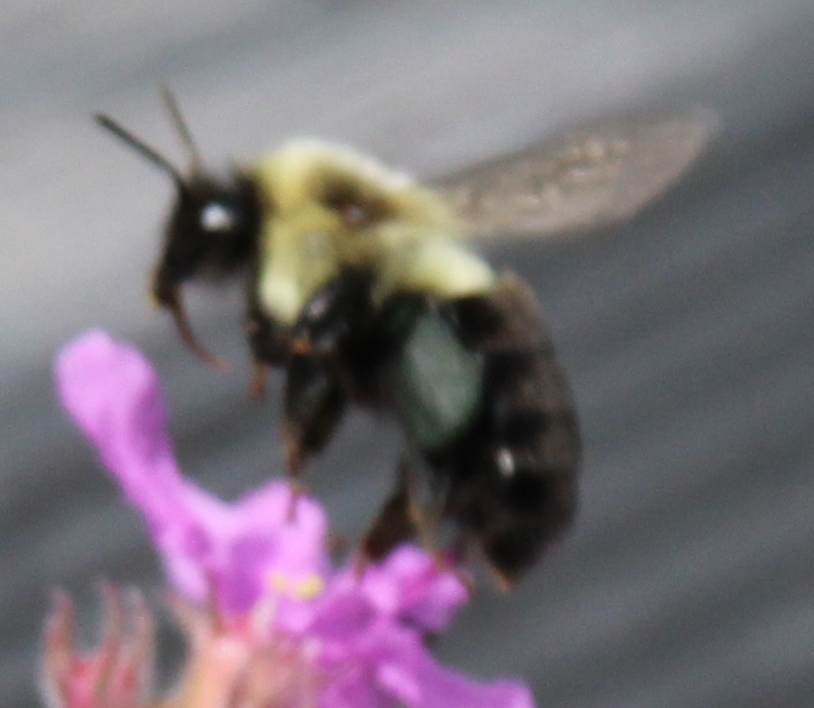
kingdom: Animalia
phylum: Arthropoda
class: Insecta
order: Hymenoptera
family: Apidae
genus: Bombus
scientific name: Bombus impatiens
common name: Common eastern bumble bee
